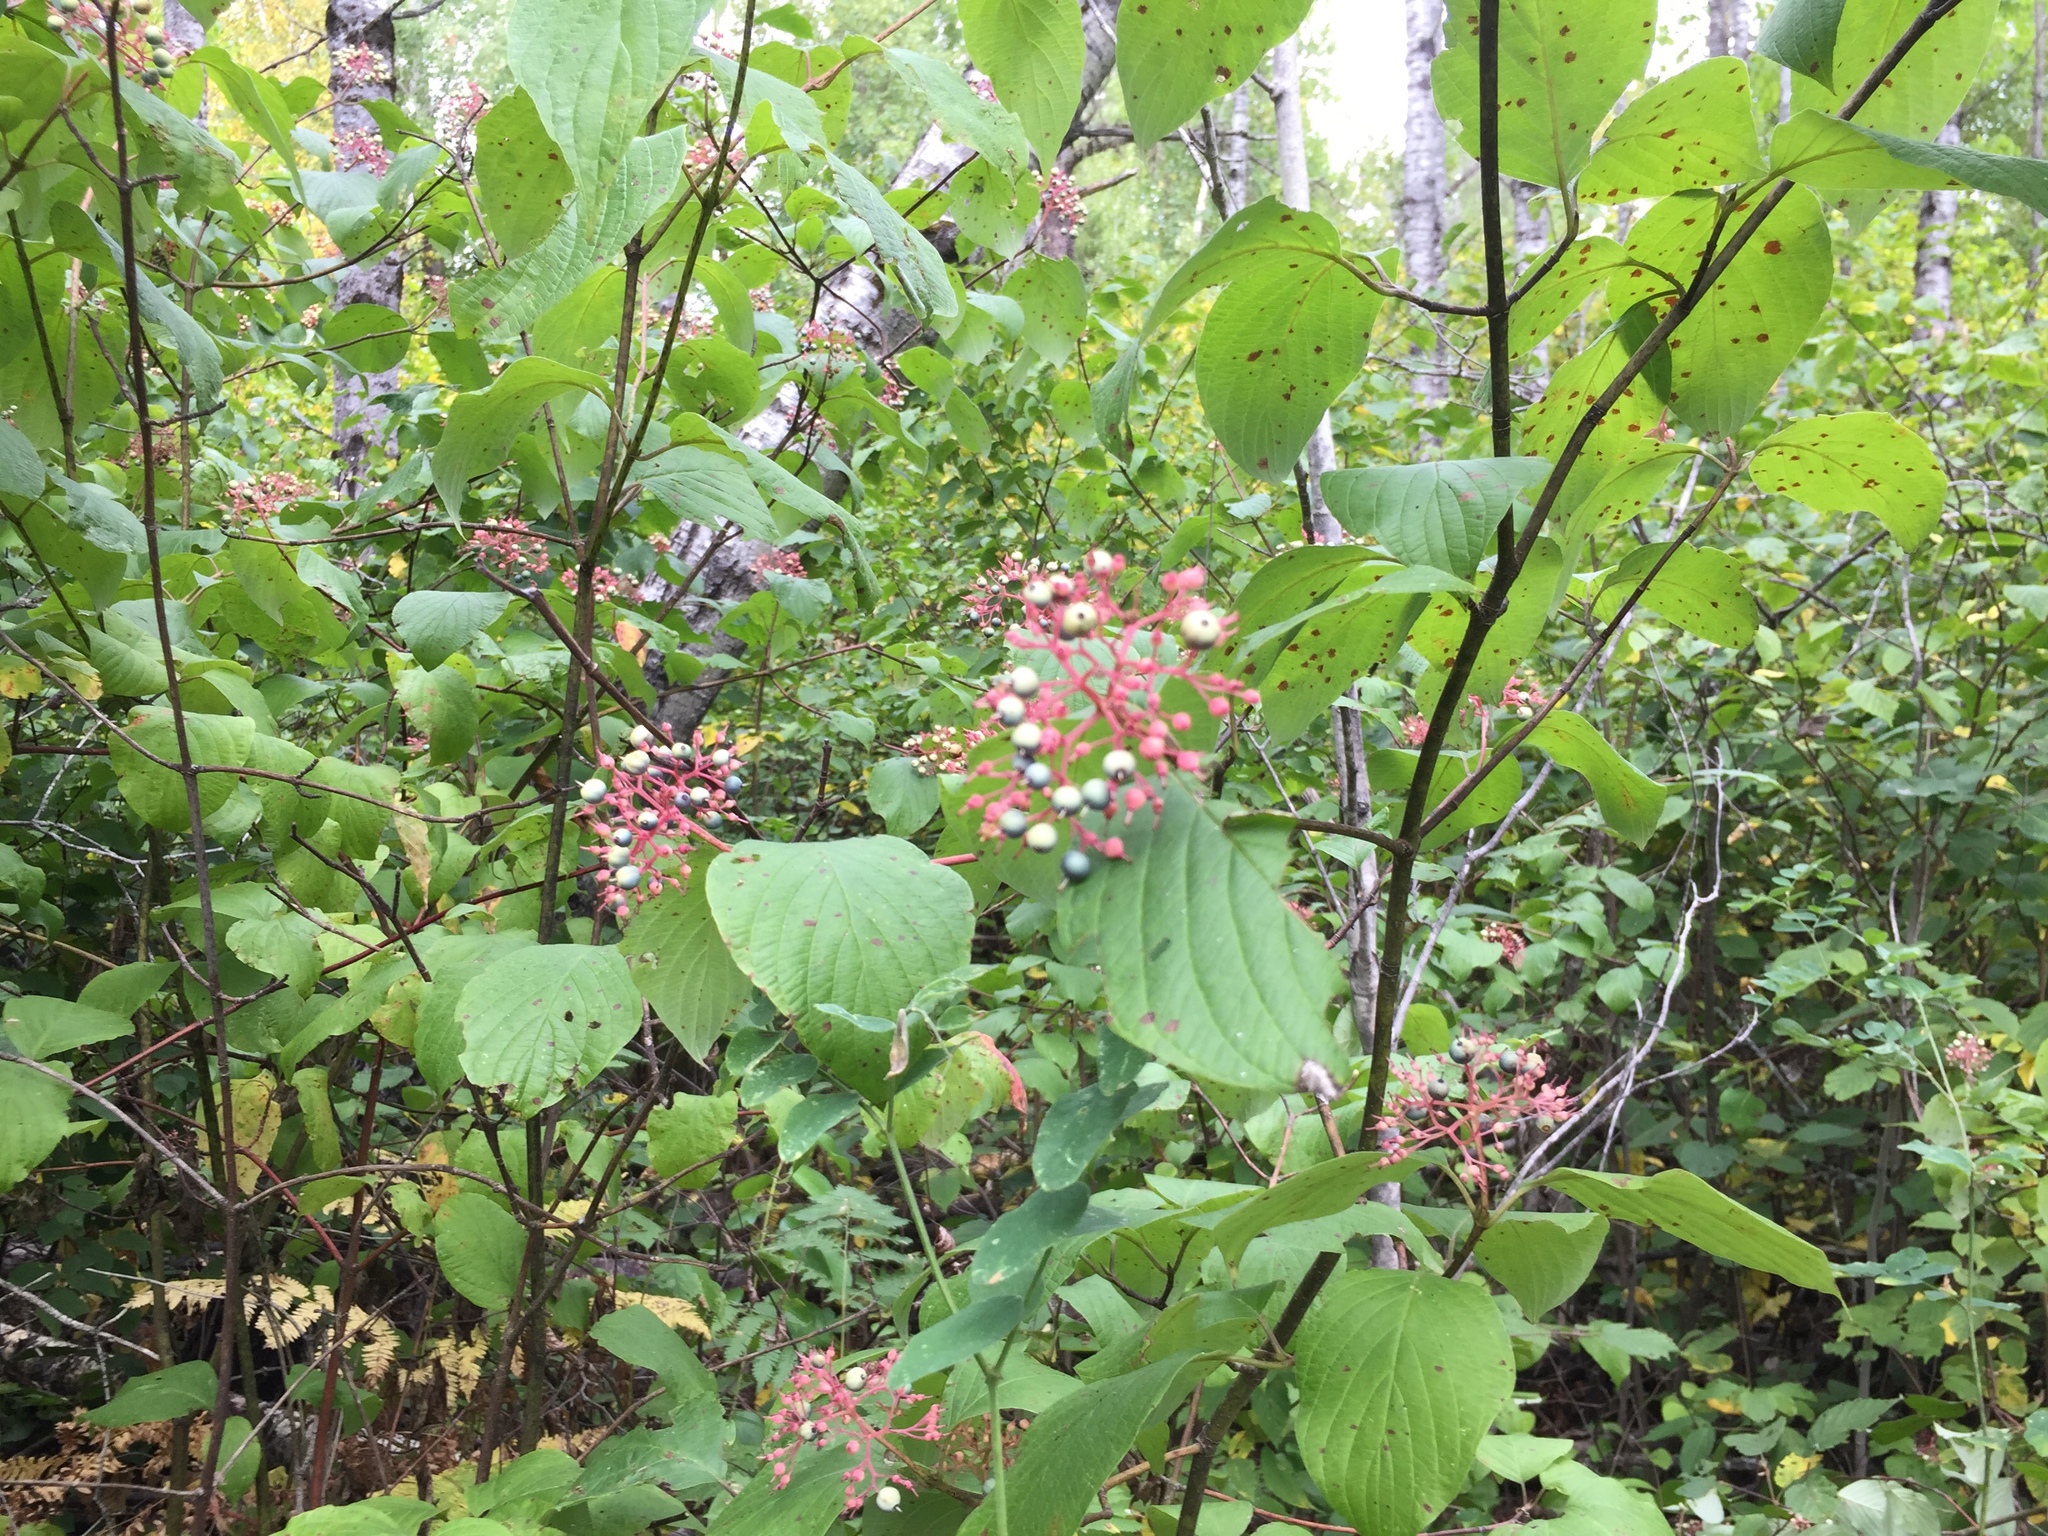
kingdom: Plantae
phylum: Tracheophyta
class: Magnoliopsida
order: Cornales
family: Cornaceae
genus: Cornus
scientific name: Cornus rugosa
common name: Round-leaf dogwood
